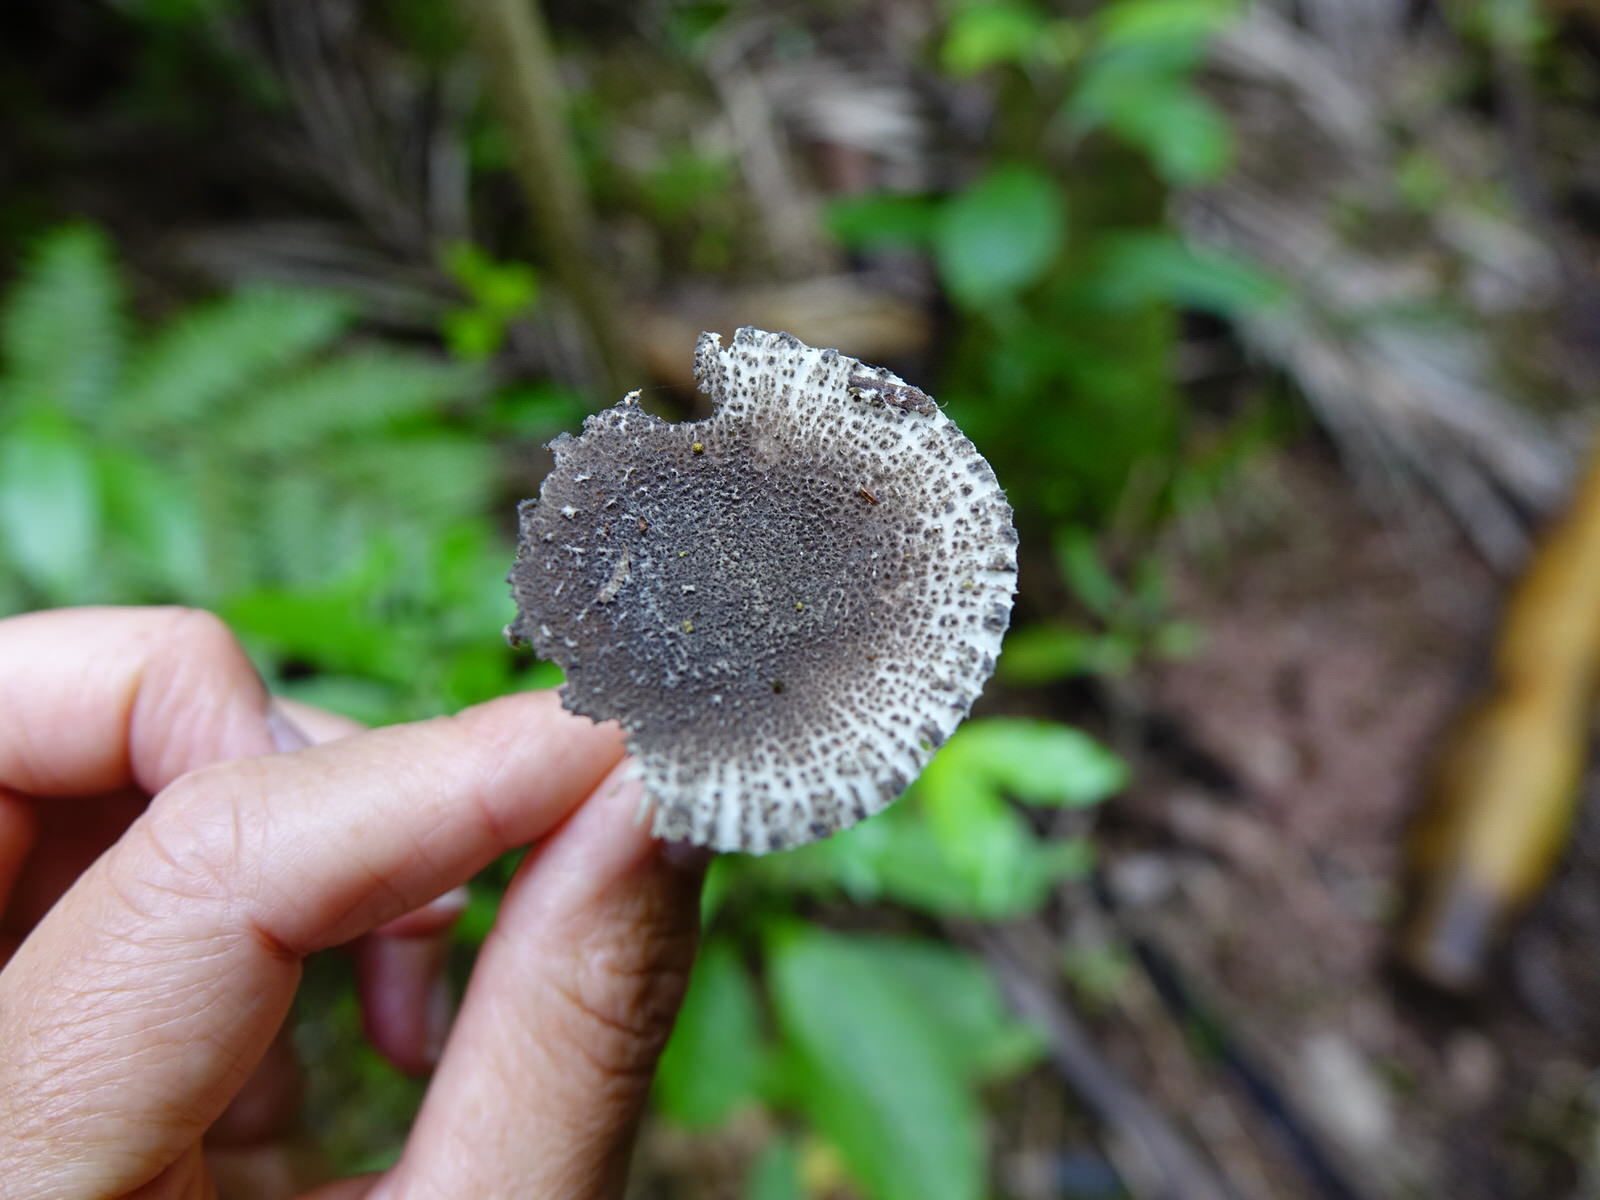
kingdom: Fungi
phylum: Basidiomycota
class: Agaricomycetes
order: Agaricales
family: Amanitaceae
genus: Amanita
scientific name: Amanita nehuta
